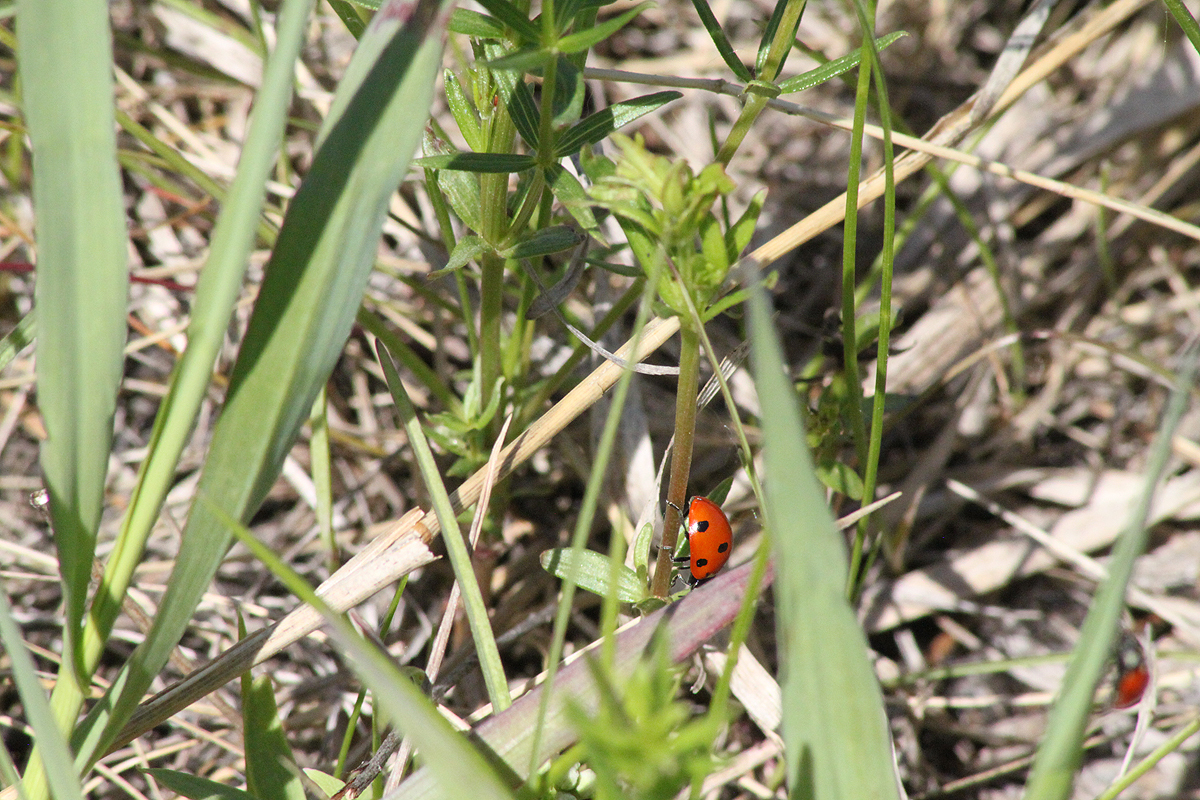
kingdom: Animalia
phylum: Arthropoda
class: Insecta
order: Coleoptera
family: Coccinellidae
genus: Coccinella
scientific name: Coccinella septempunctata
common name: Sevenspotted lady beetle
